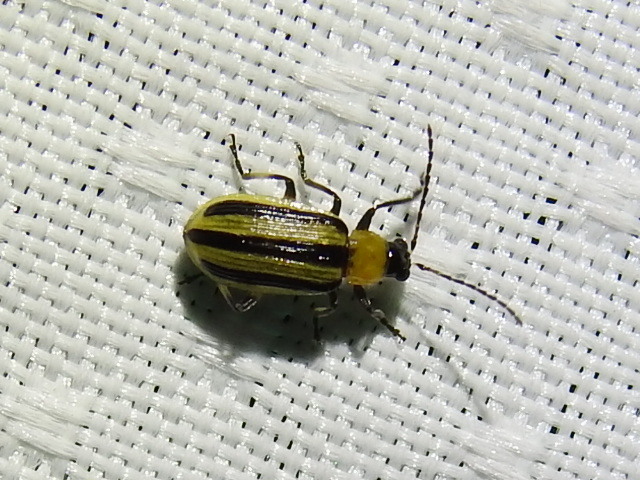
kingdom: Animalia
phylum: Arthropoda
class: Insecta
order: Coleoptera
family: Chrysomelidae
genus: Acalymma
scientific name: Acalymma vittatum
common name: Striped cucumber beetle
